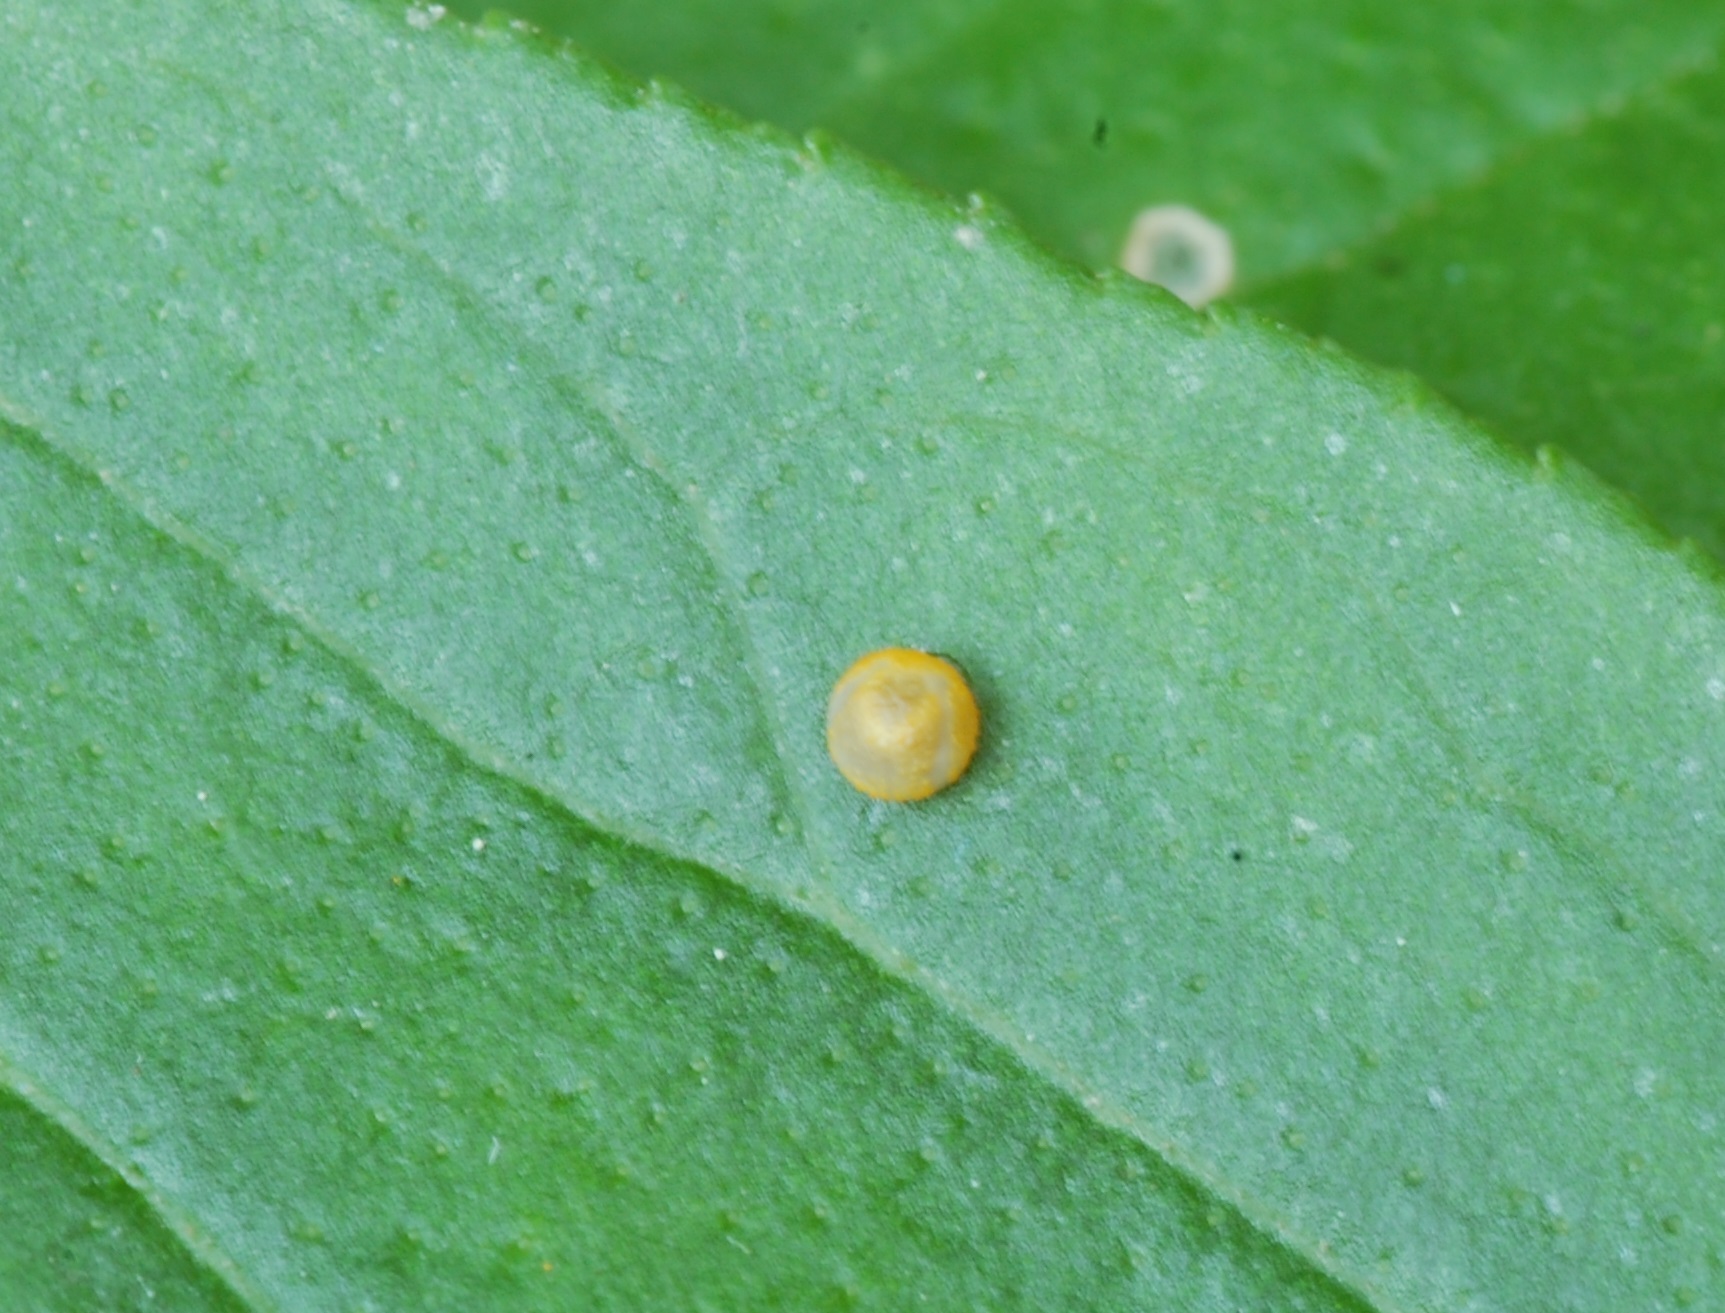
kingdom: Animalia
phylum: Arthropoda
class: Insecta
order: Lepidoptera
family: Papilionidae
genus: Papilio
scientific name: Papilio cresphontes
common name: Giant swallowtail
